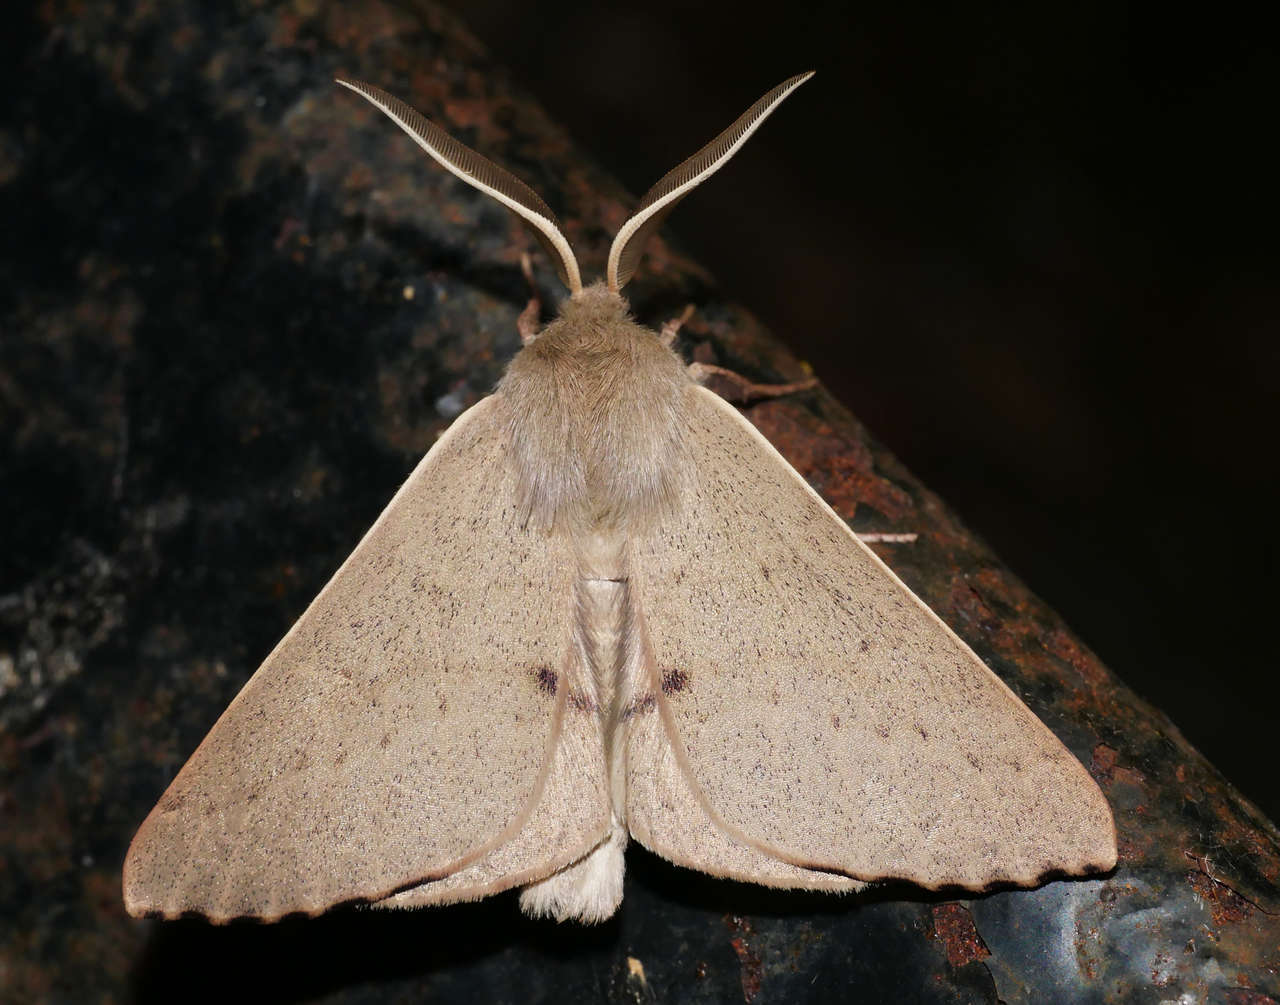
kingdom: Animalia
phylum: Arthropoda
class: Insecta
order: Lepidoptera
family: Geometridae
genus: Arhodia
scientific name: Arhodia lasiocamparia
